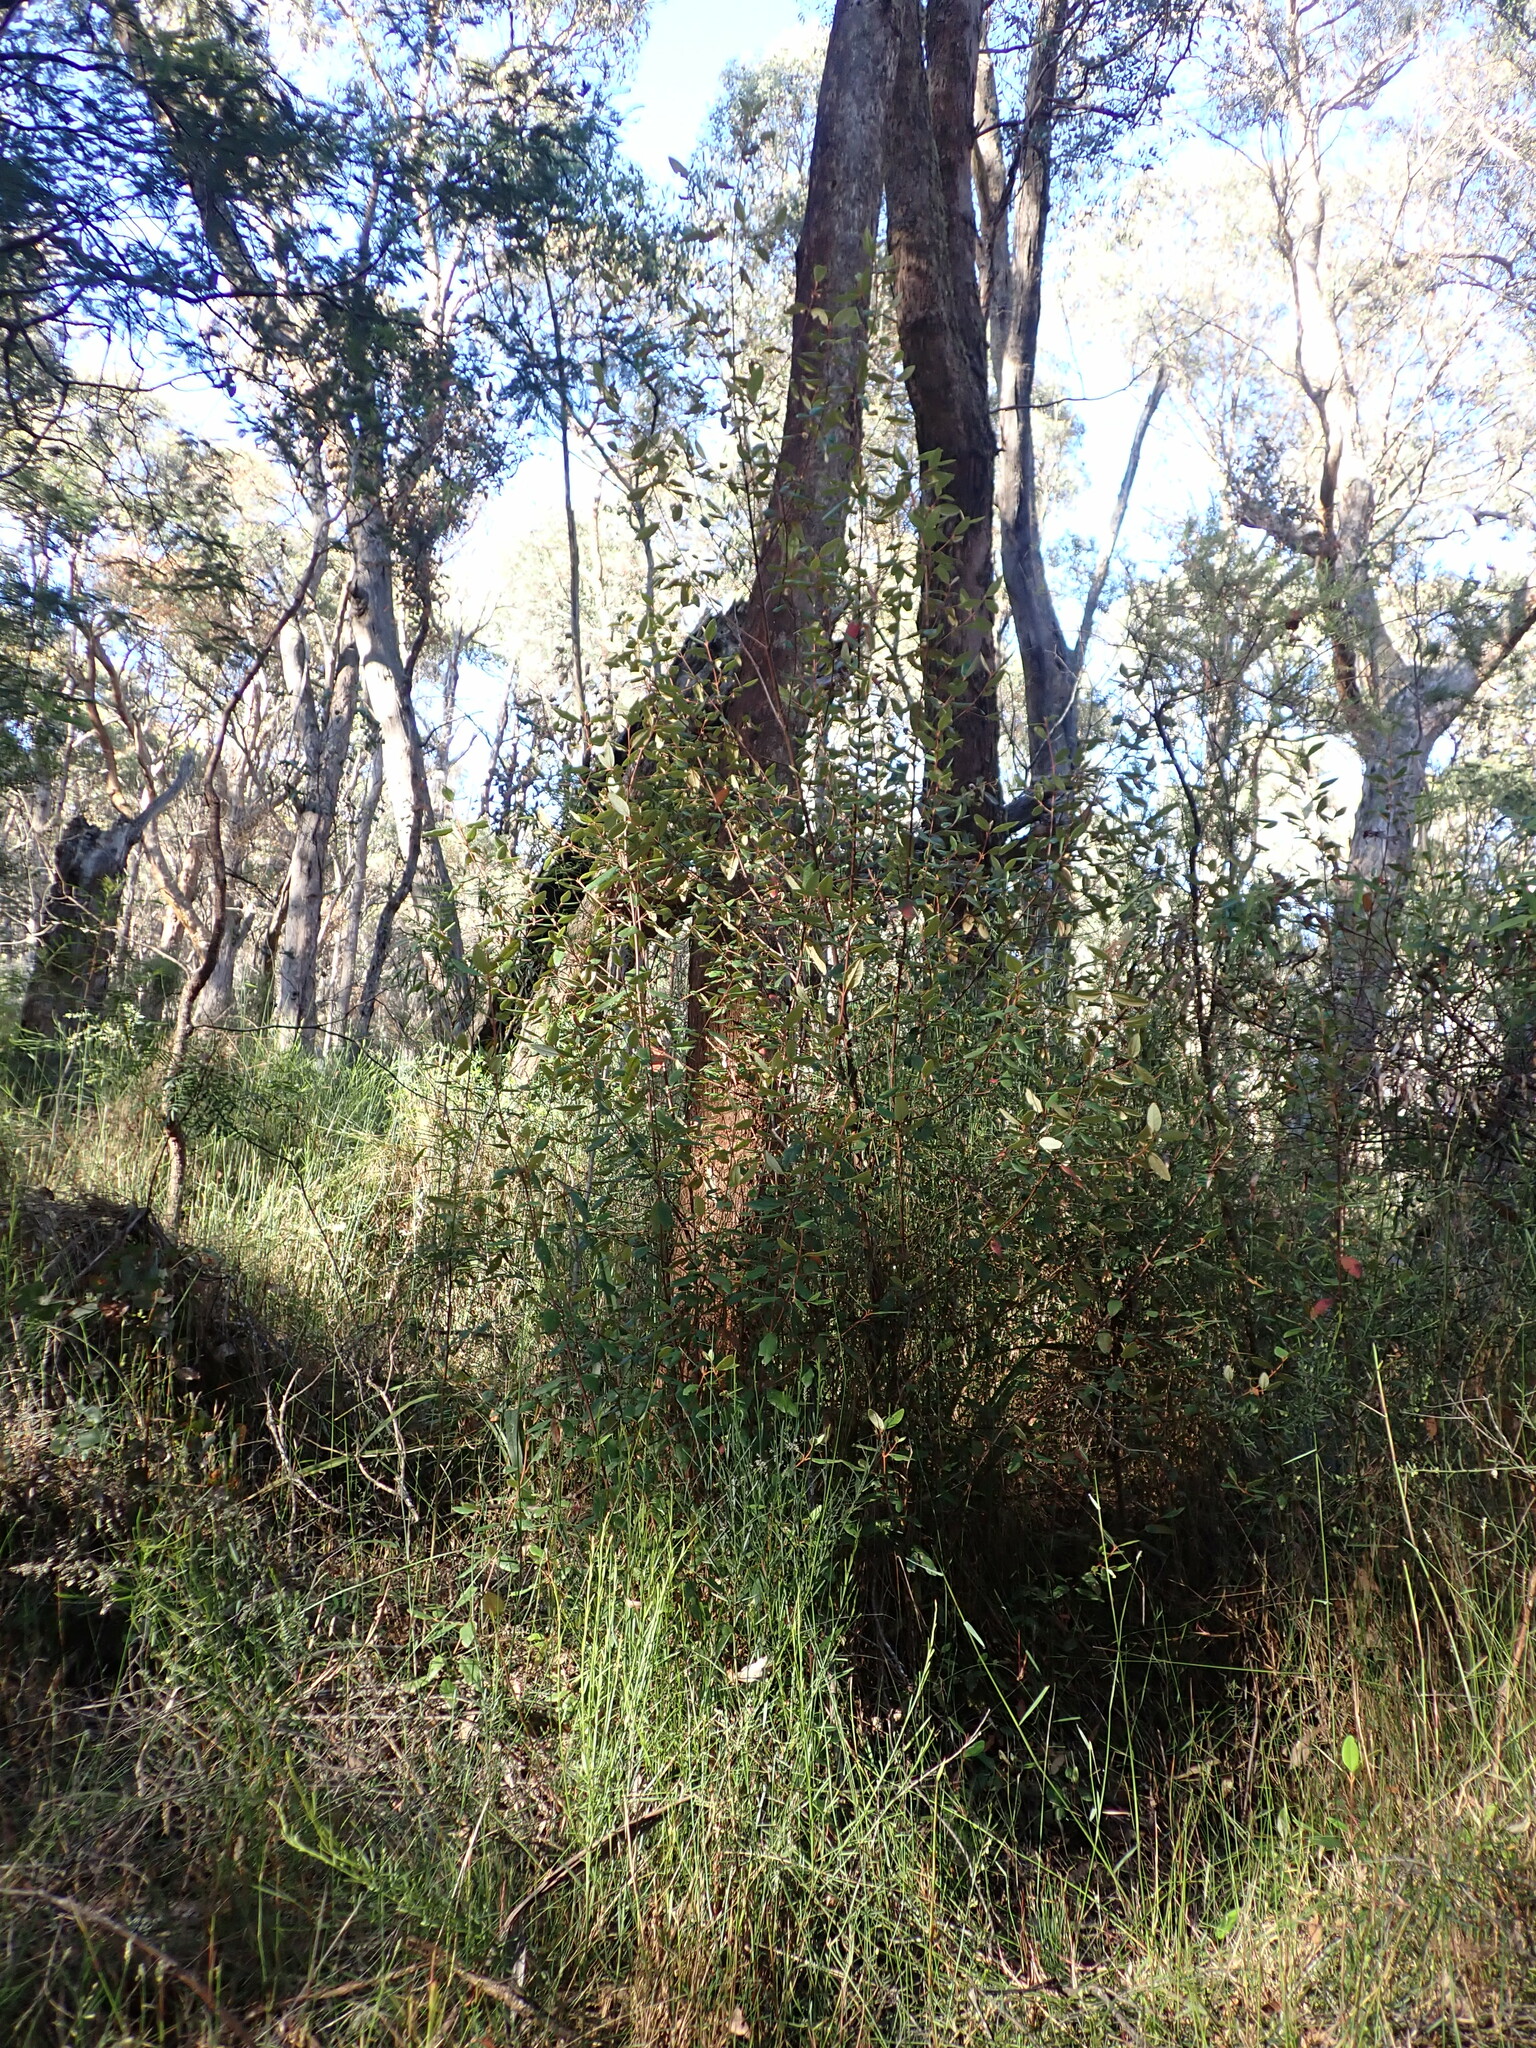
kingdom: Plantae
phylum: Tracheophyta
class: Magnoliopsida
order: Sapindales
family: Rutaceae
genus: Correa
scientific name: Correa lawrenceana
